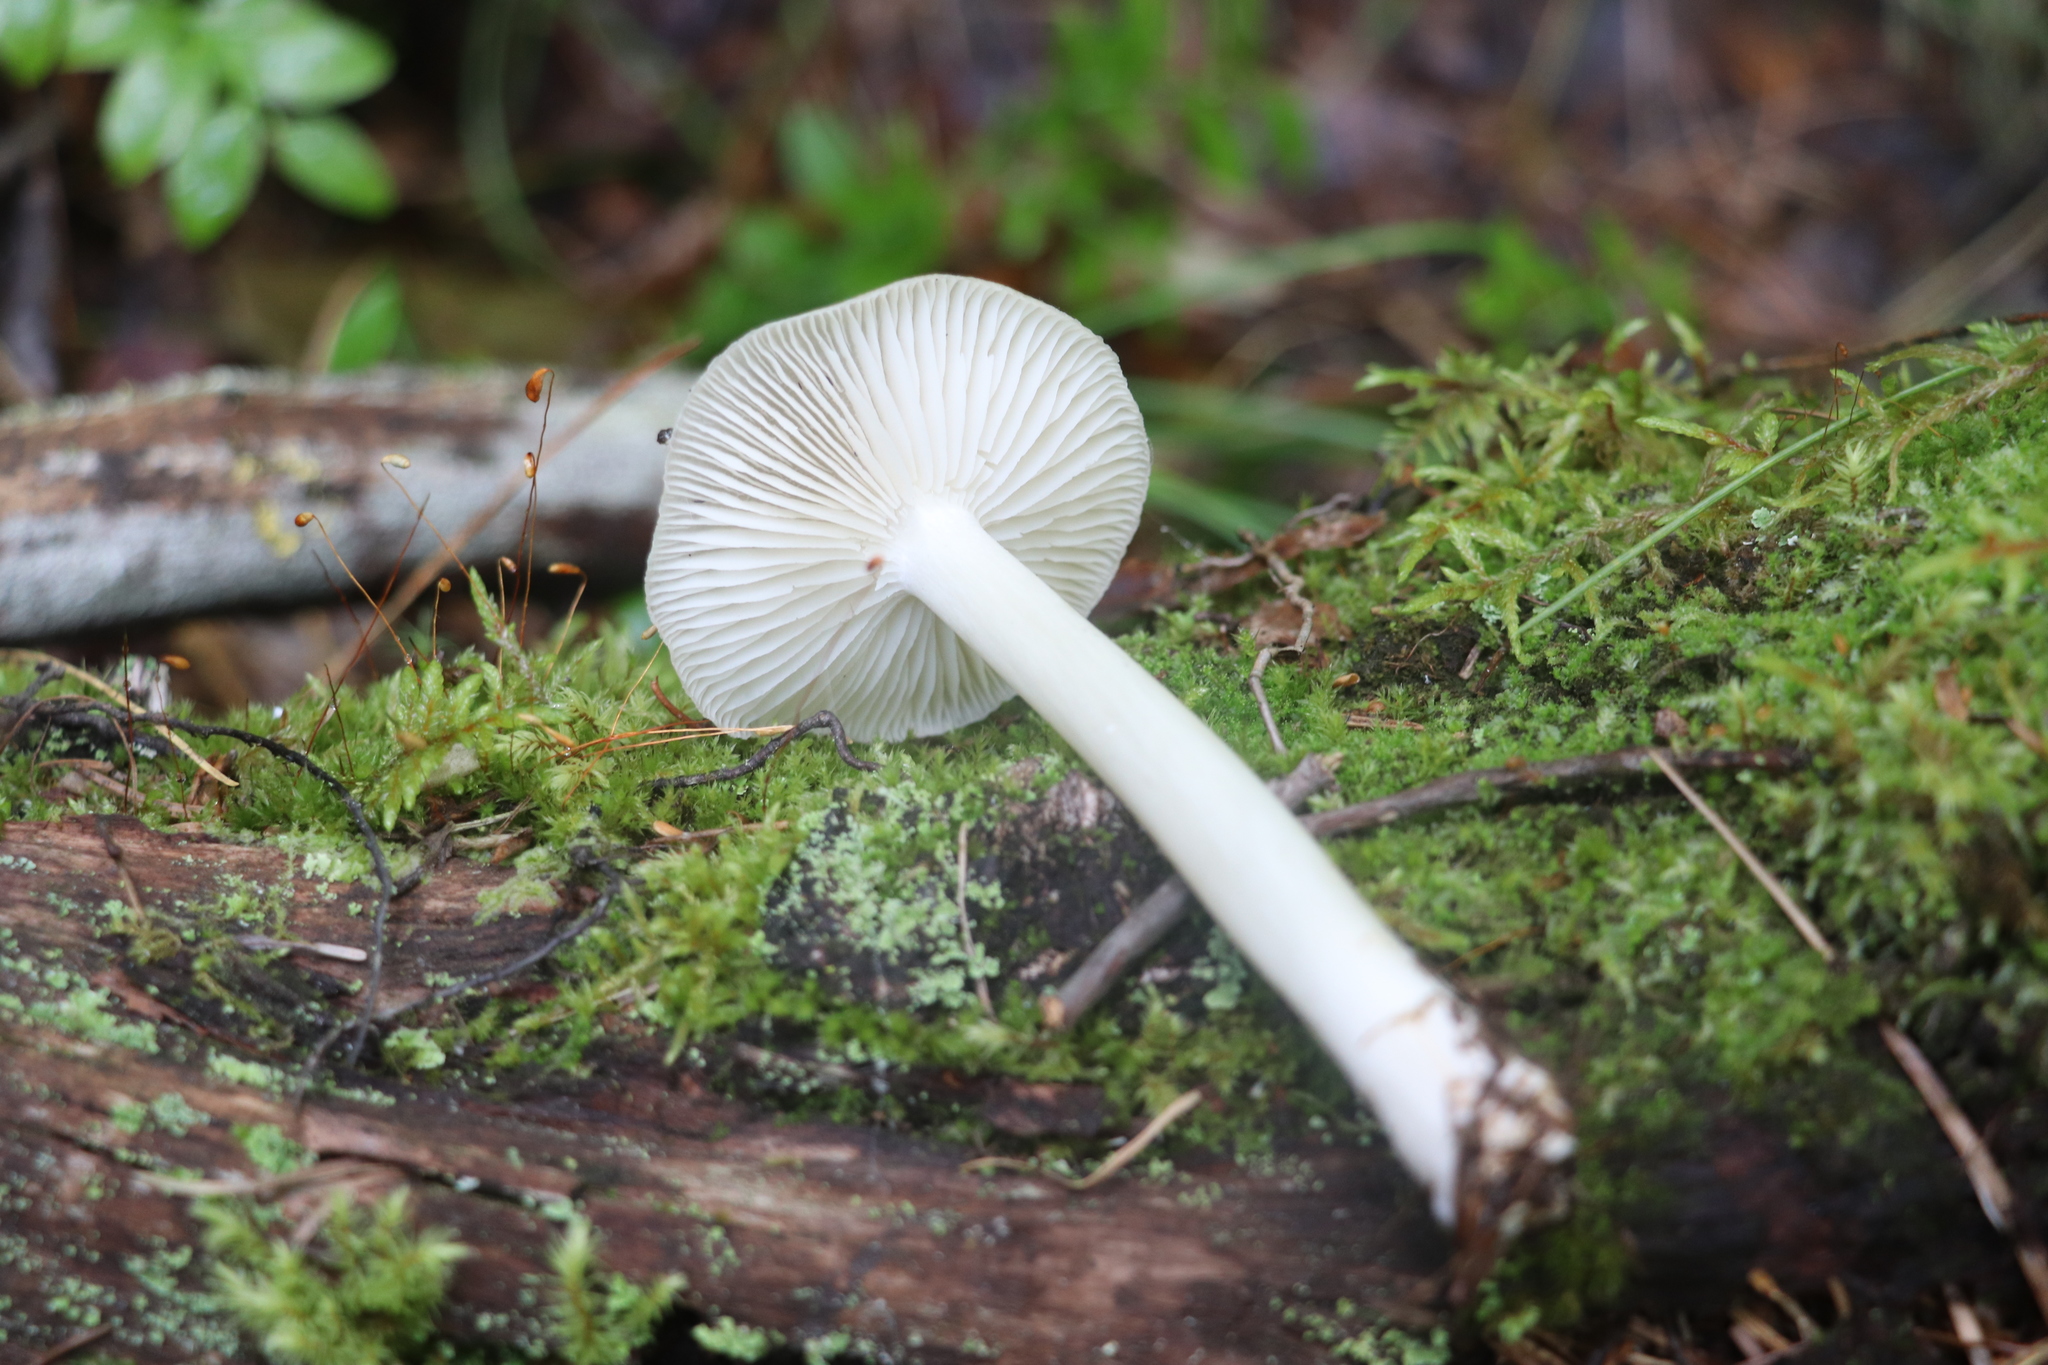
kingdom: Fungi
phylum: Basidiomycota
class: Agaricomycetes
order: Agaricales
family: Tricholomataceae
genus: Megacollybia
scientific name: Megacollybia platyphylla
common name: Whitelaced shank
